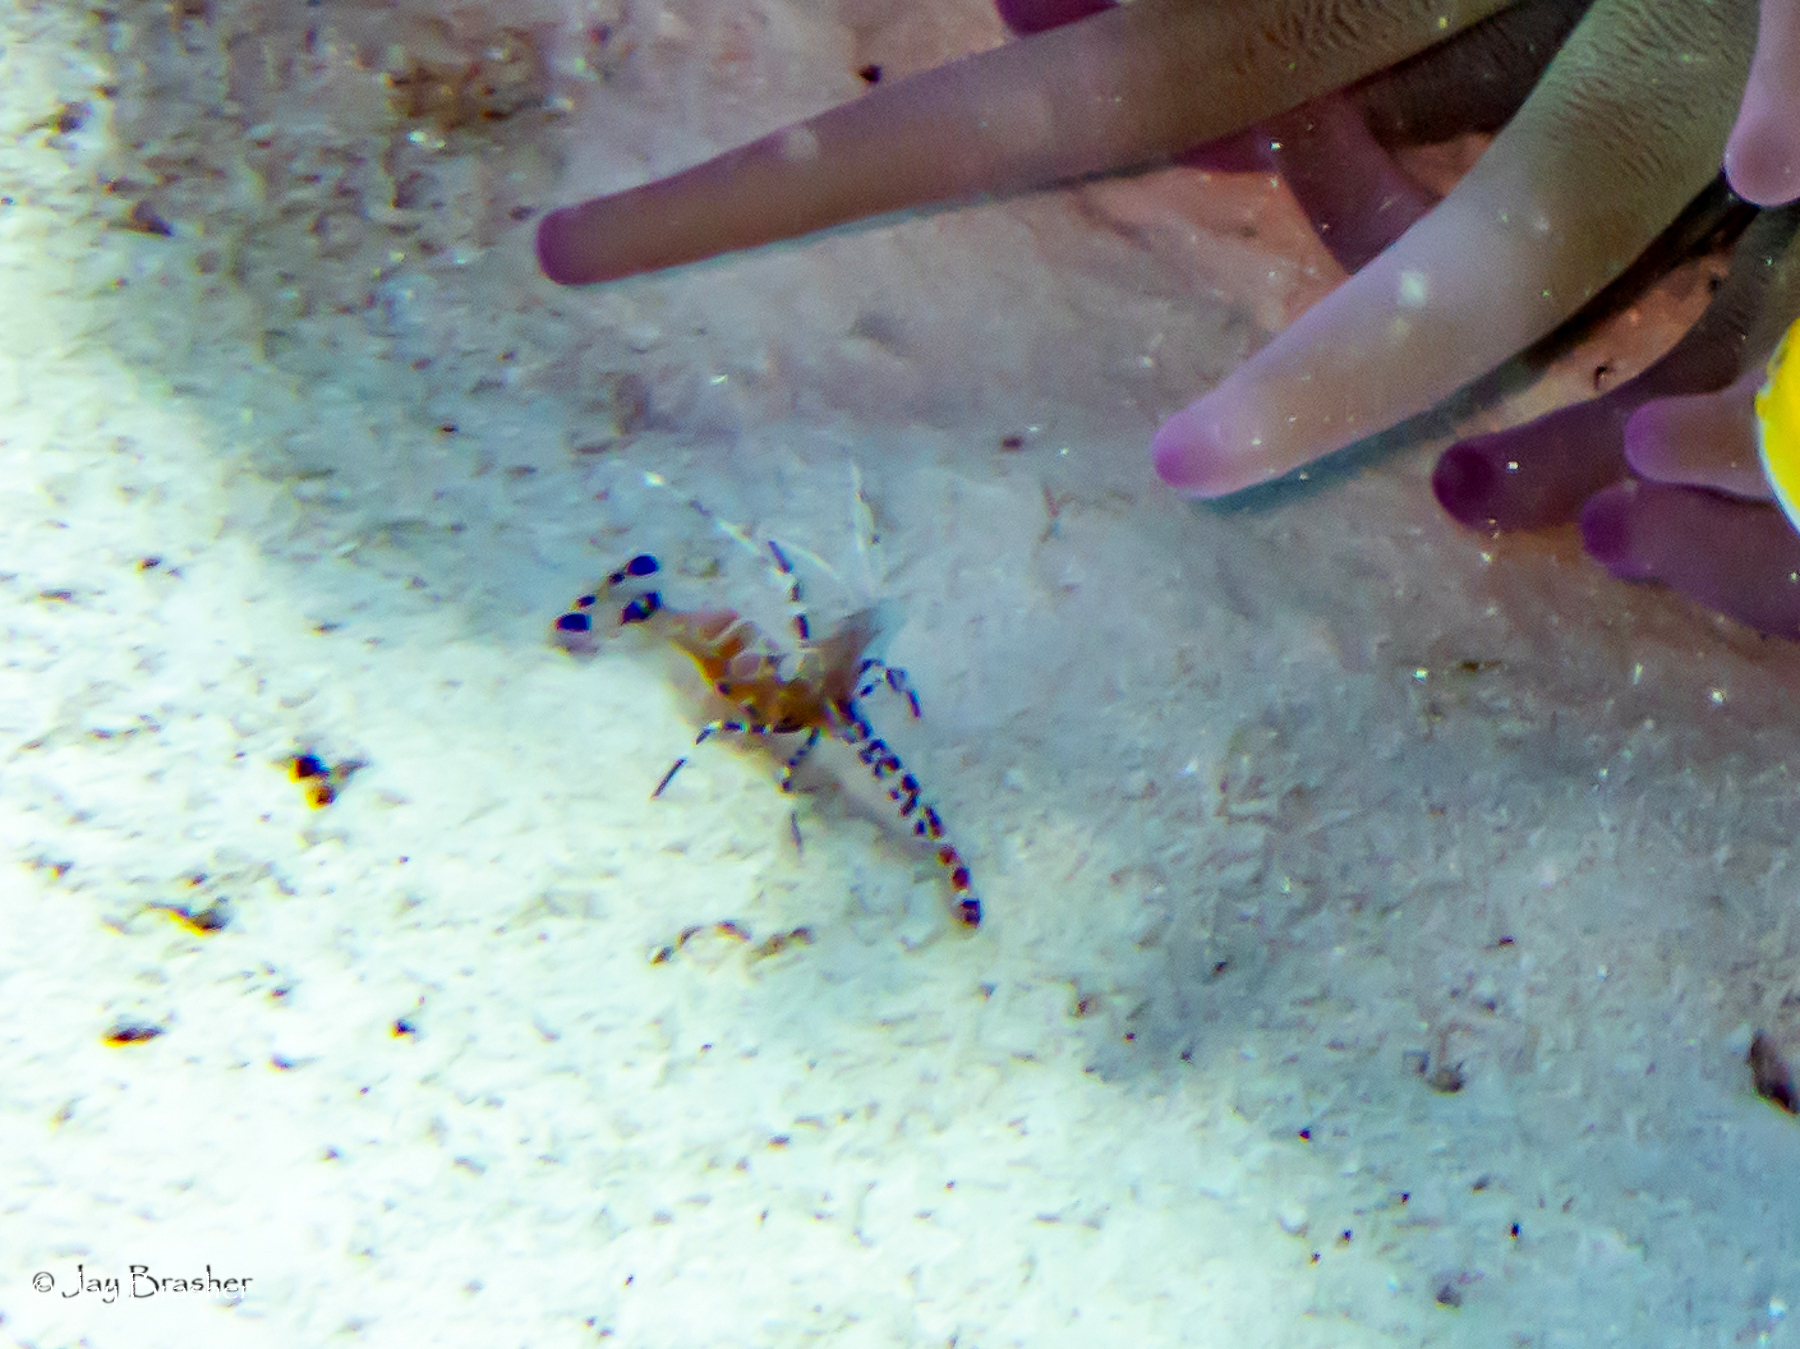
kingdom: Animalia
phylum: Arthropoda
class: Malacostraca
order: Decapoda
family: Palaemonidae
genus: Periclimenes
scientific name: Periclimenes yucatanicus
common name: Spotted cleaning shrimp
